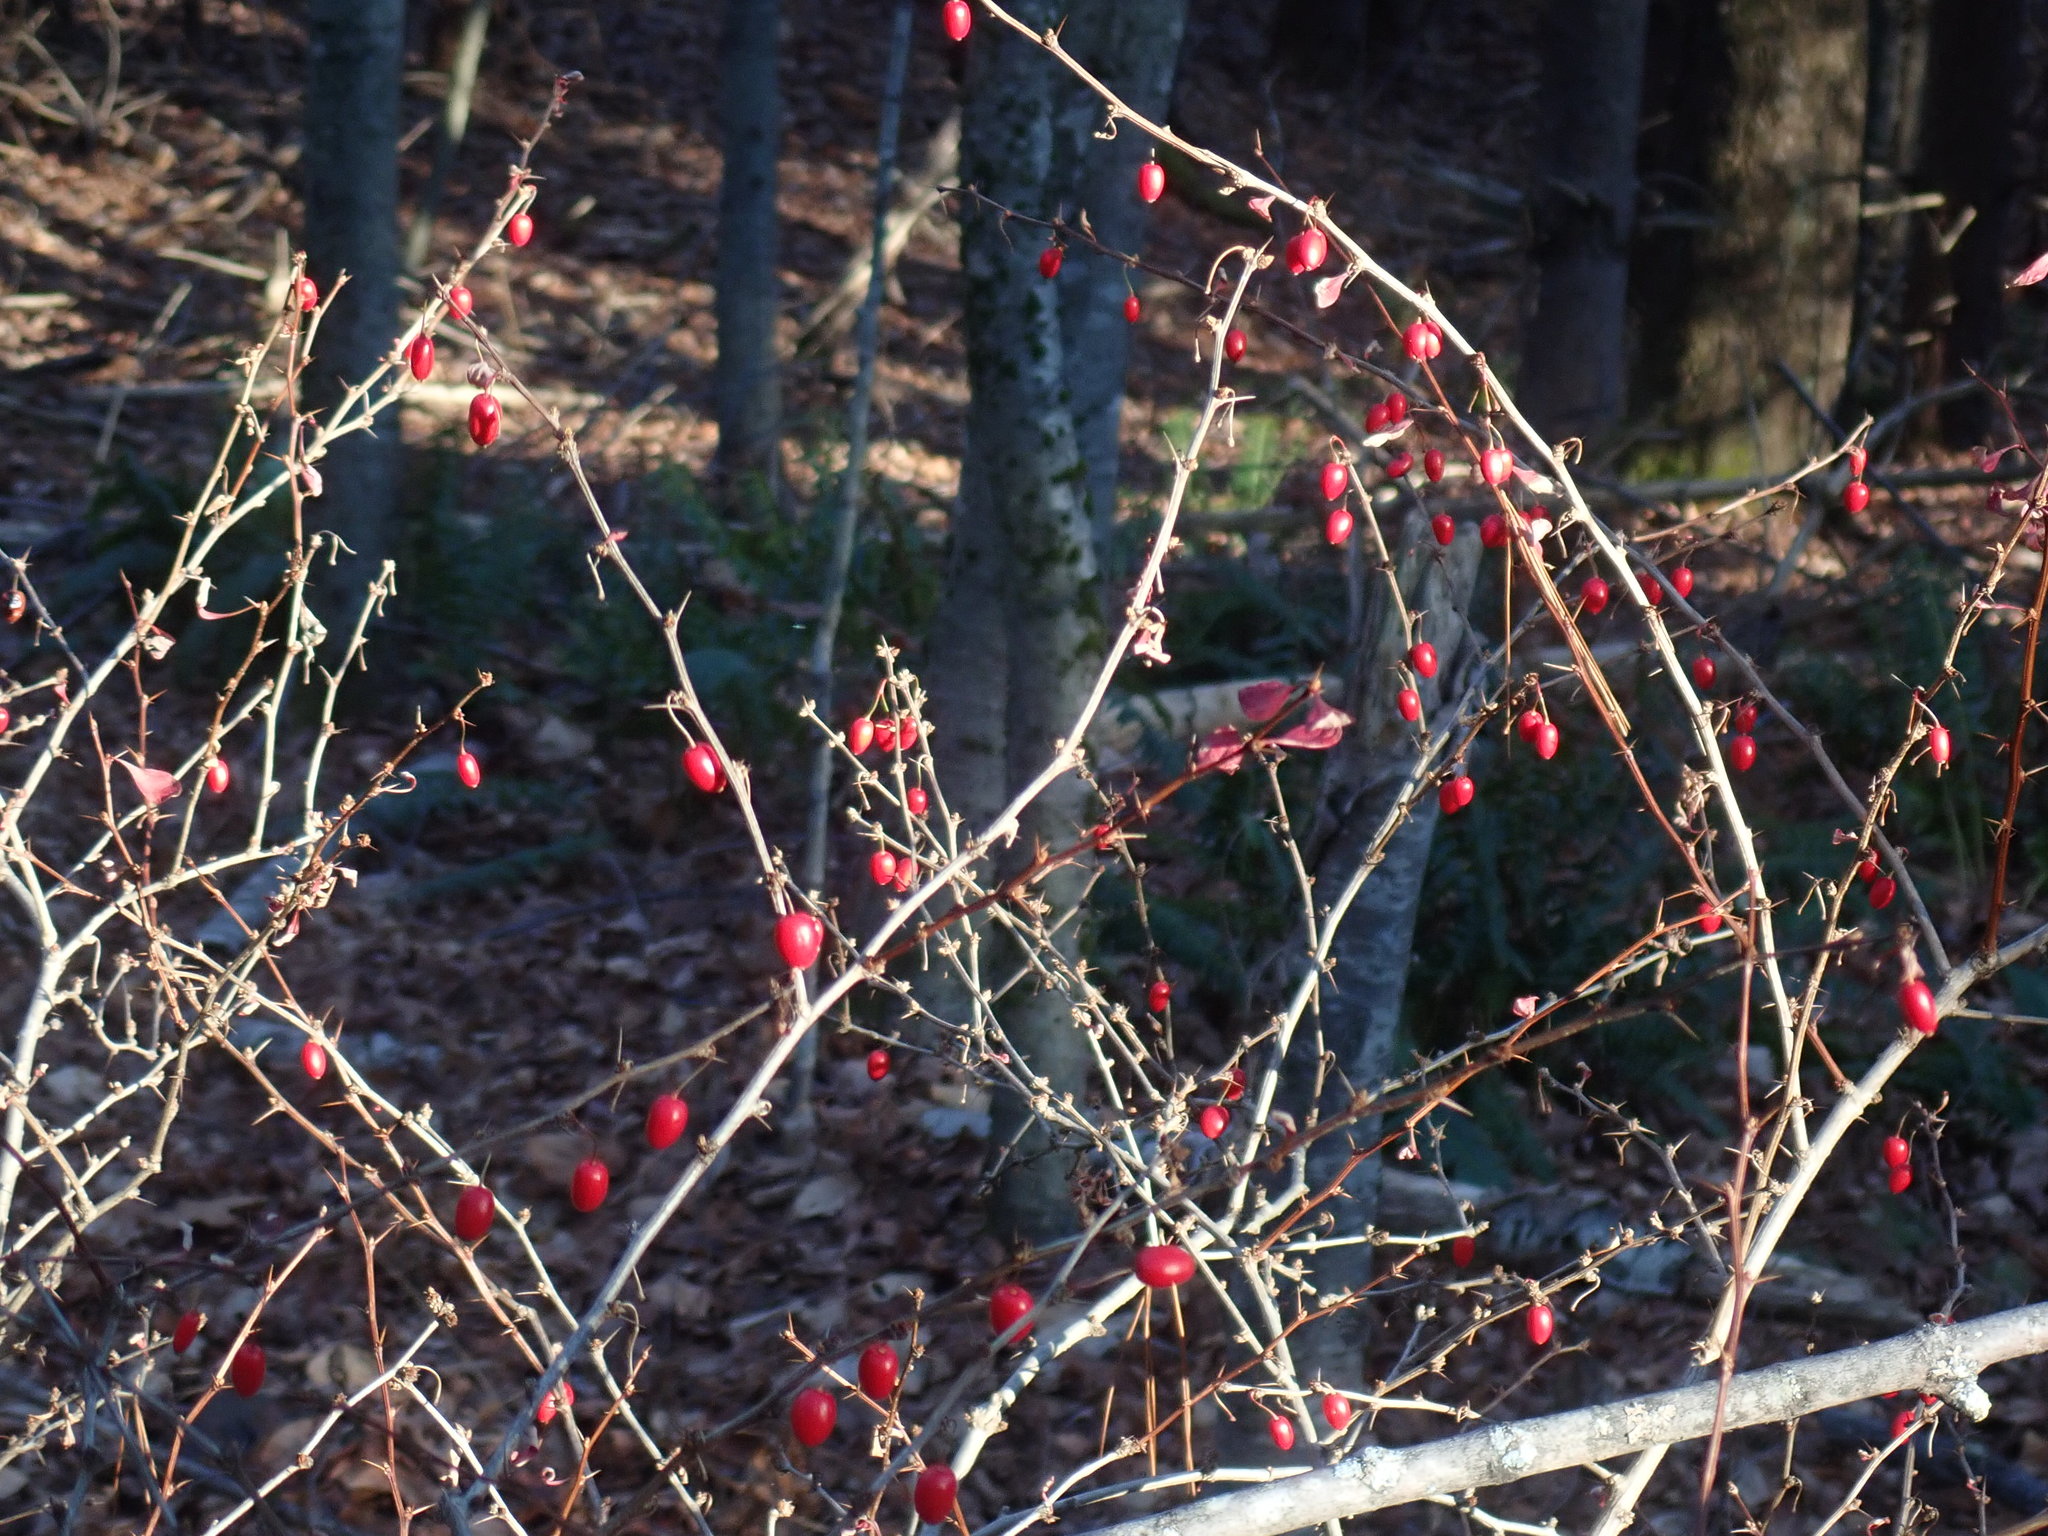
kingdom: Plantae
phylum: Tracheophyta
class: Magnoliopsida
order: Ranunculales
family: Berberidaceae
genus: Berberis
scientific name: Berberis thunbergii
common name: Japanese barberry
